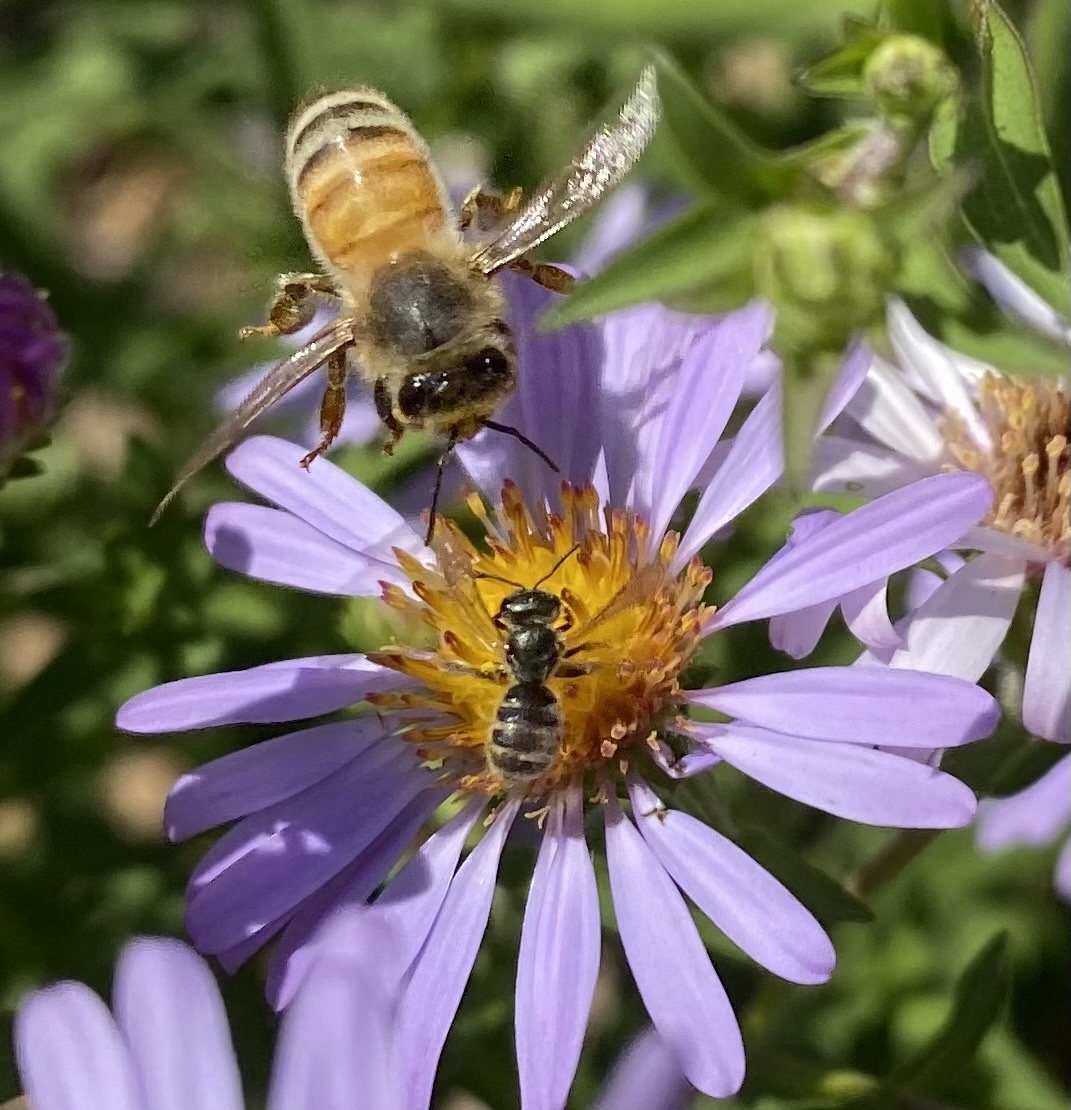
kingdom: Animalia
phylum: Arthropoda
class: Insecta
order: Hymenoptera
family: Apidae
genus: Apis
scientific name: Apis mellifera
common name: Honey bee
